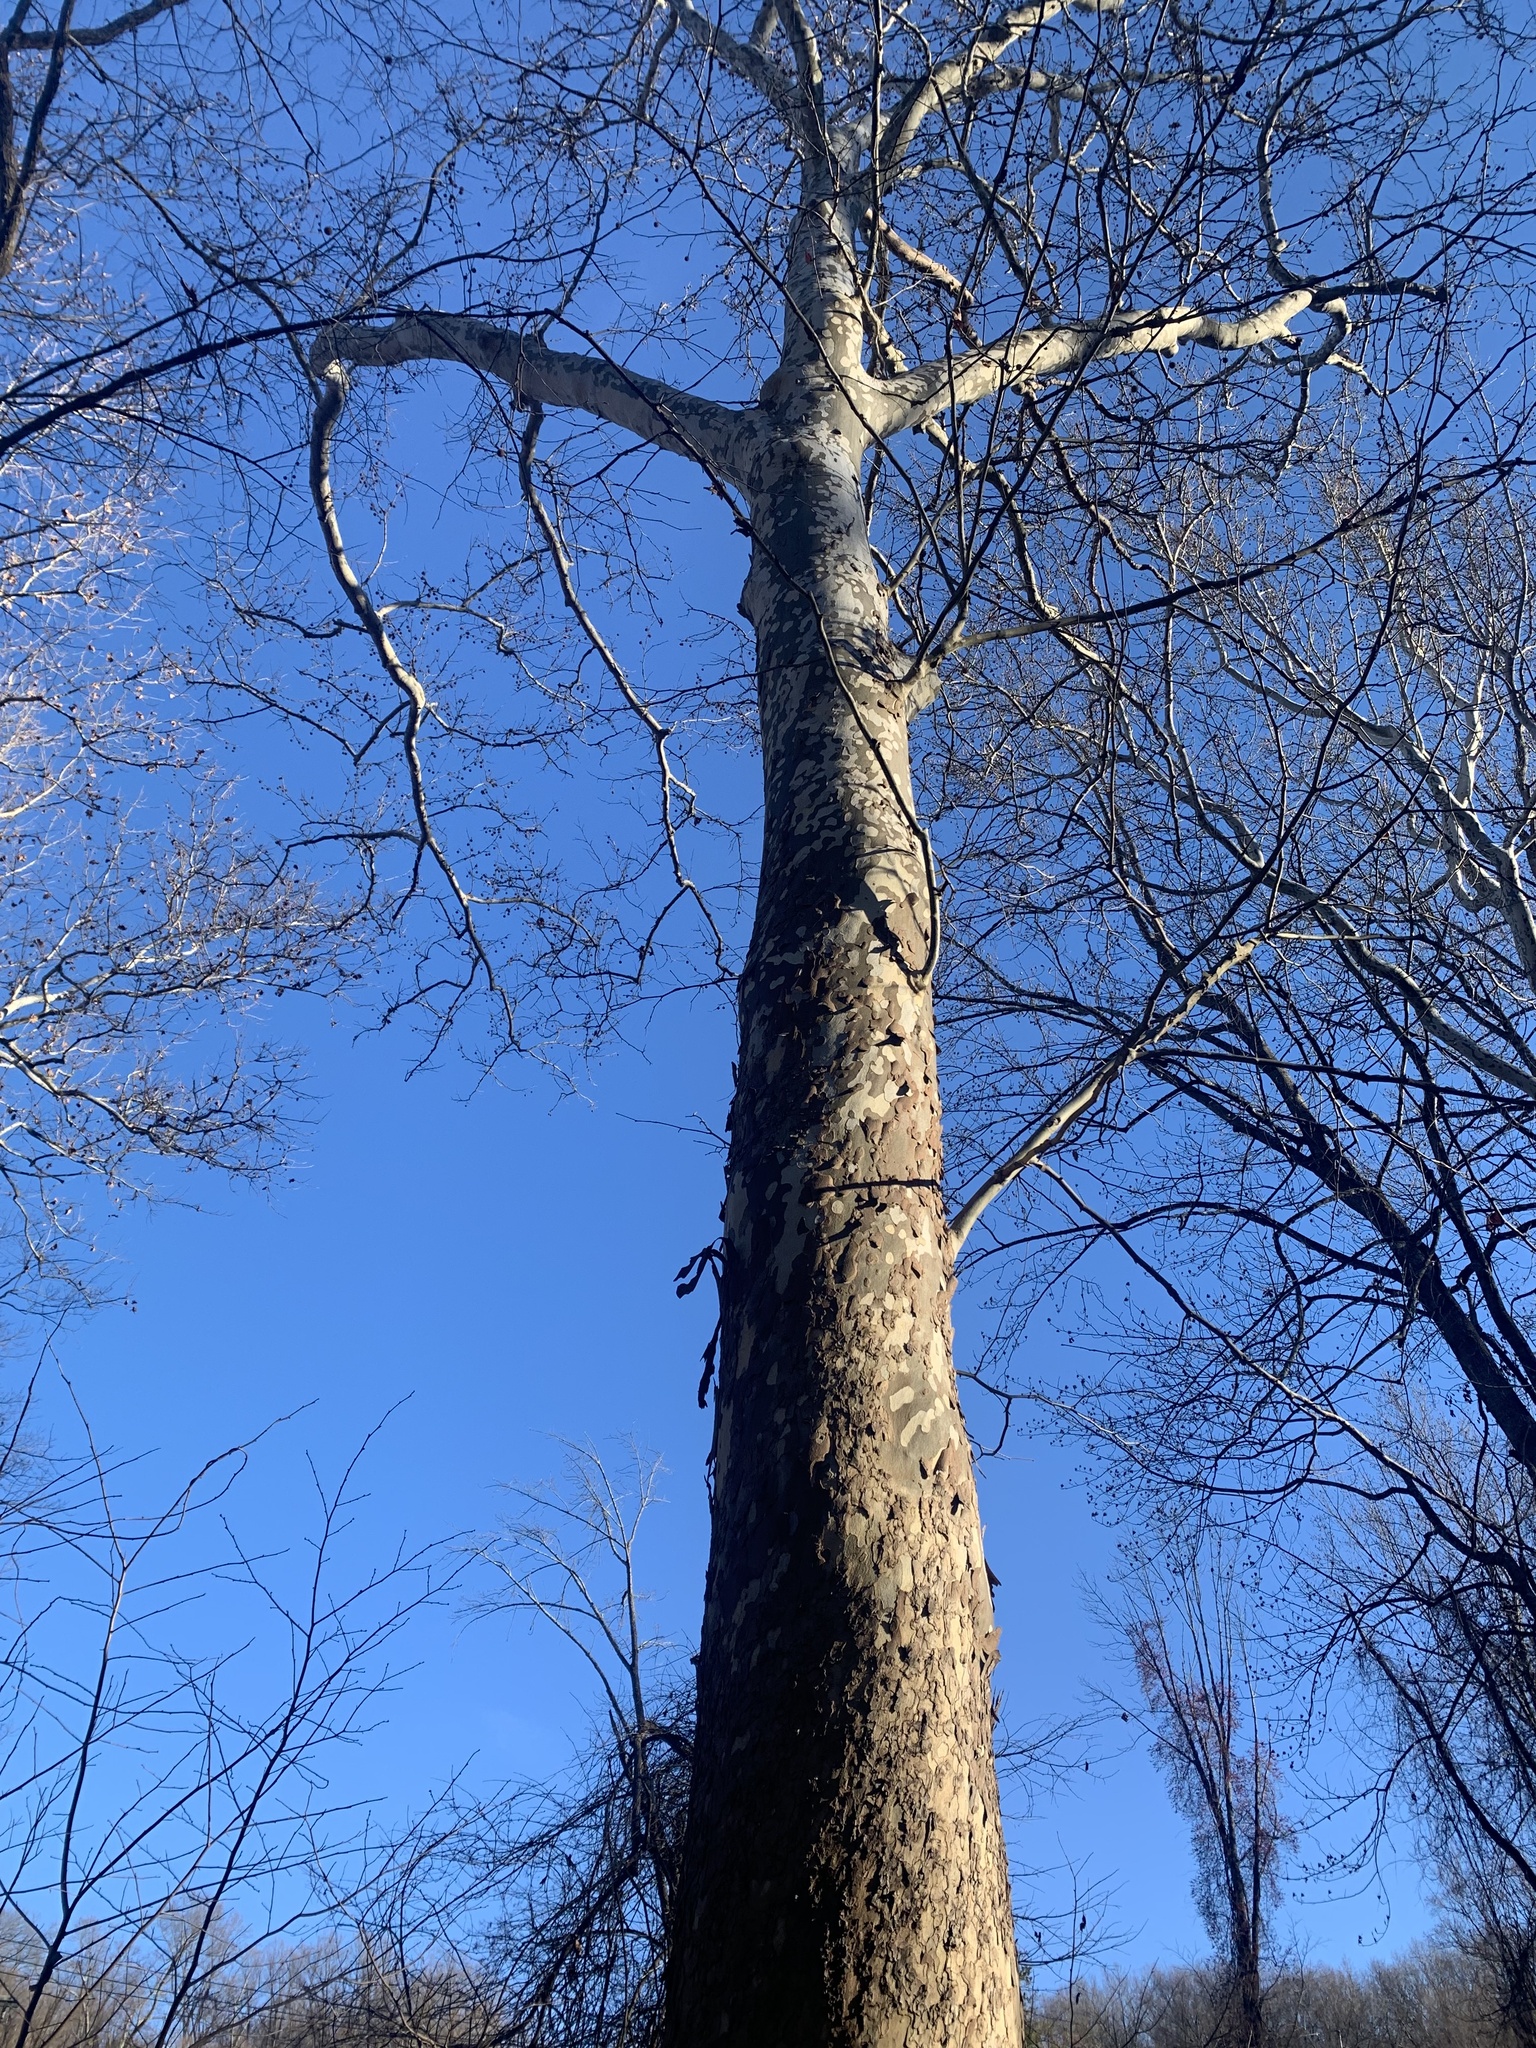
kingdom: Plantae
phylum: Tracheophyta
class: Magnoliopsida
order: Proteales
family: Platanaceae
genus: Platanus
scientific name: Platanus occidentalis
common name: American sycamore
